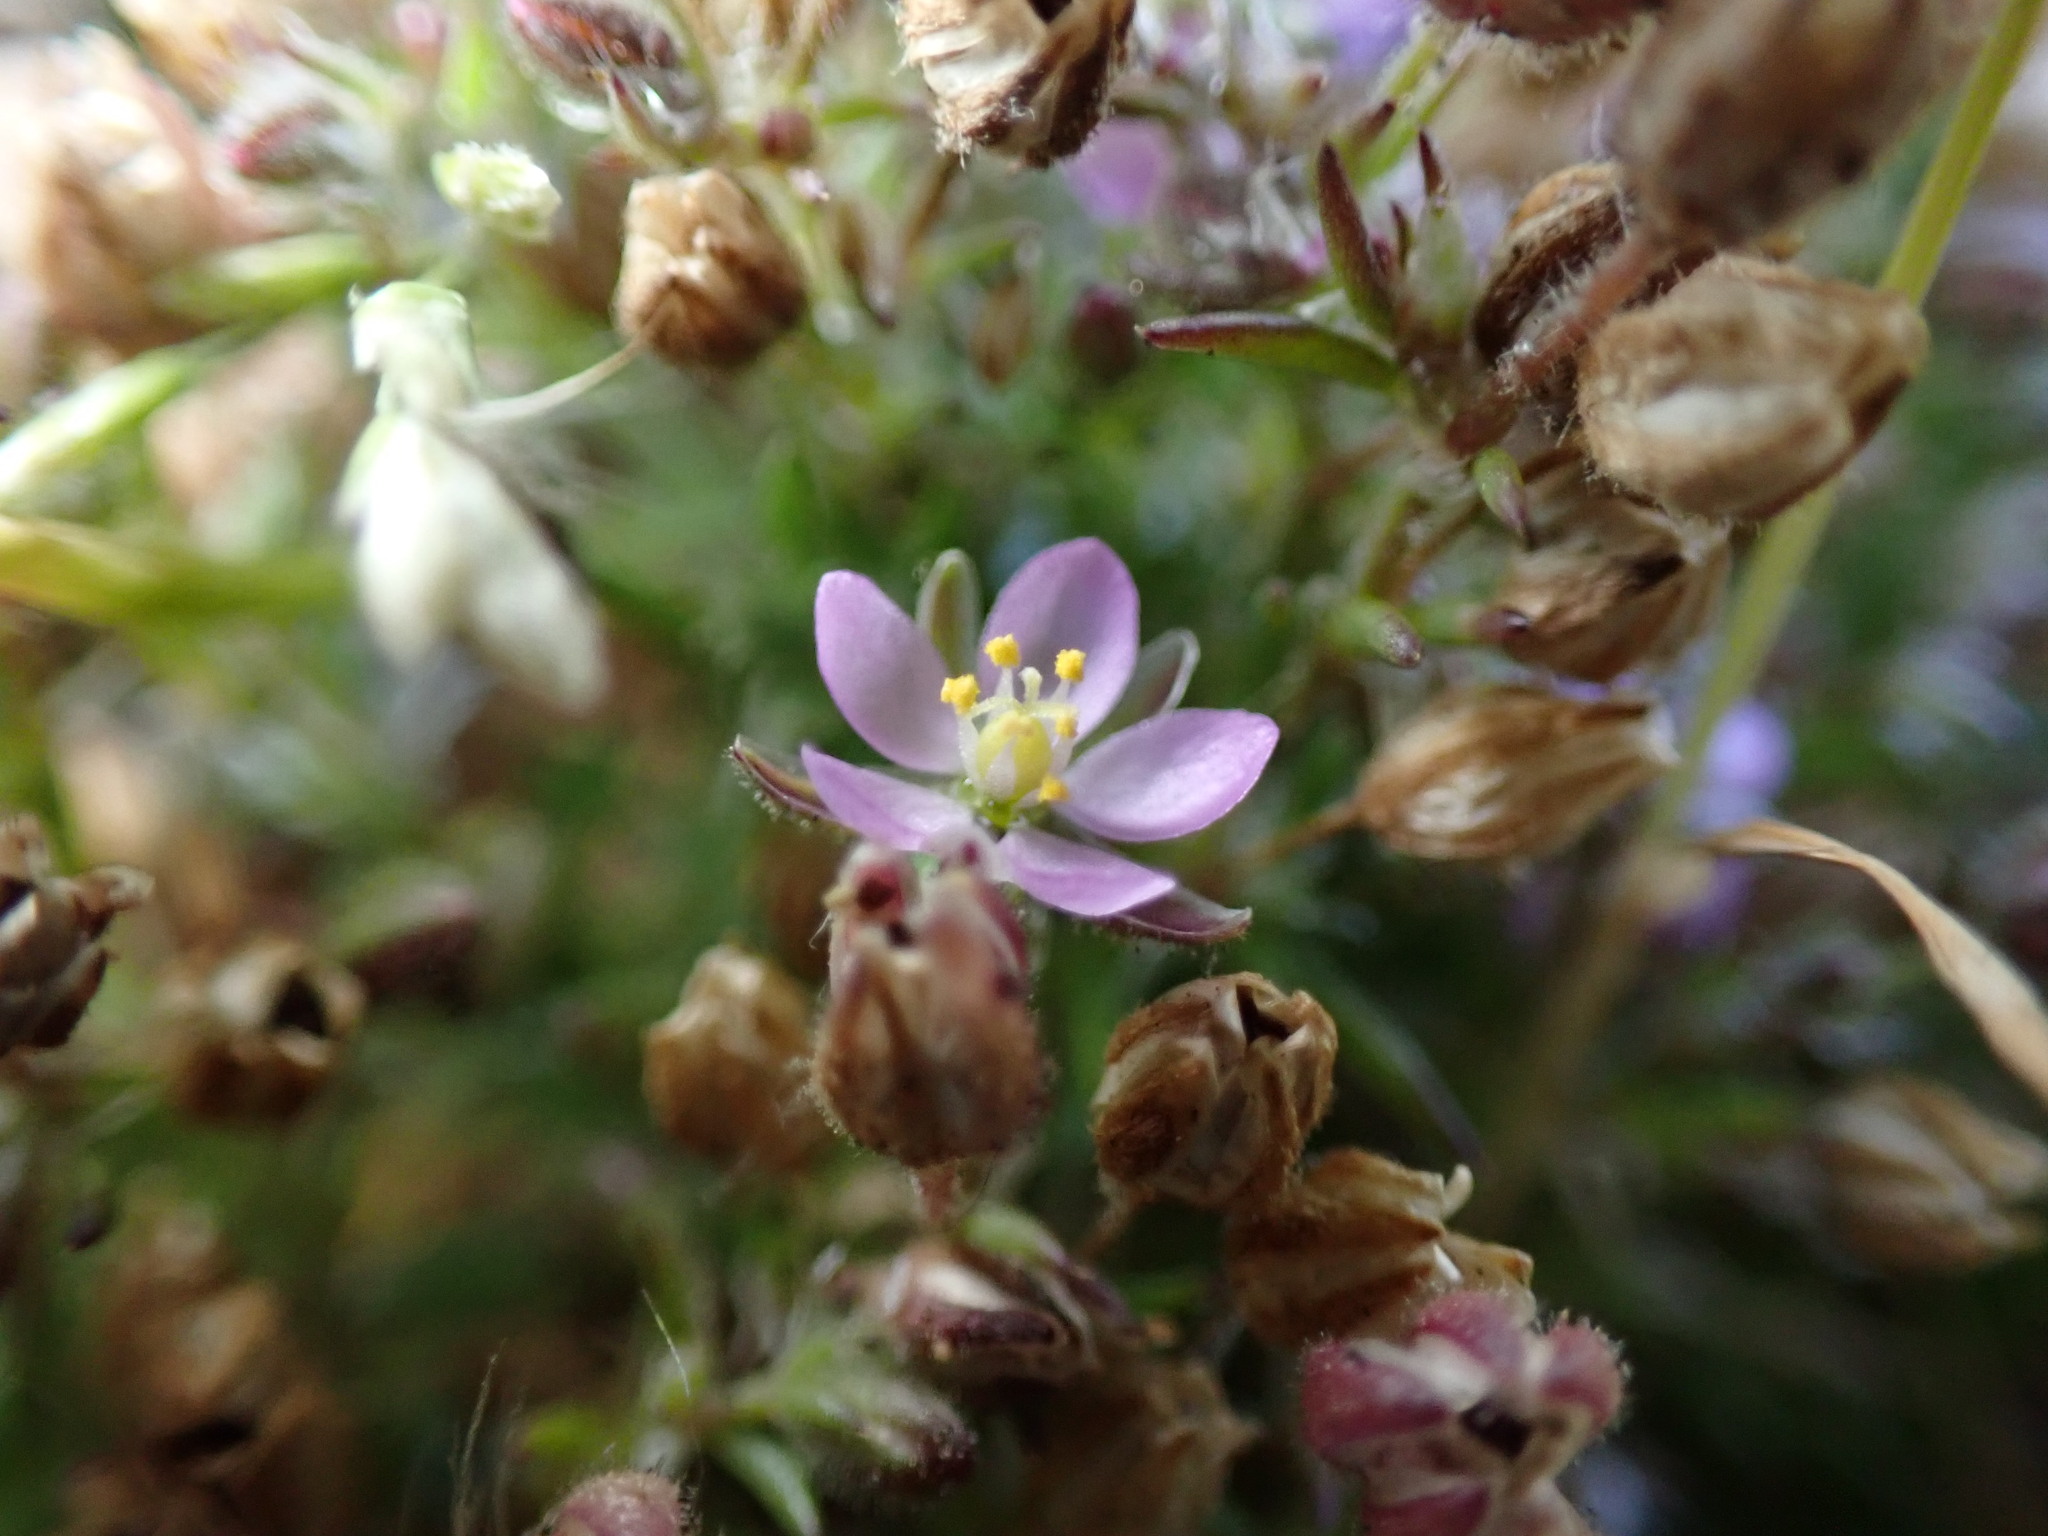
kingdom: Plantae
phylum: Tracheophyta
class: Magnoliopsida
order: Caryophyllales
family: Caryophyllaceae
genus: Spergularia
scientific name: Spergularia rubra
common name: Red sand-spurrey
